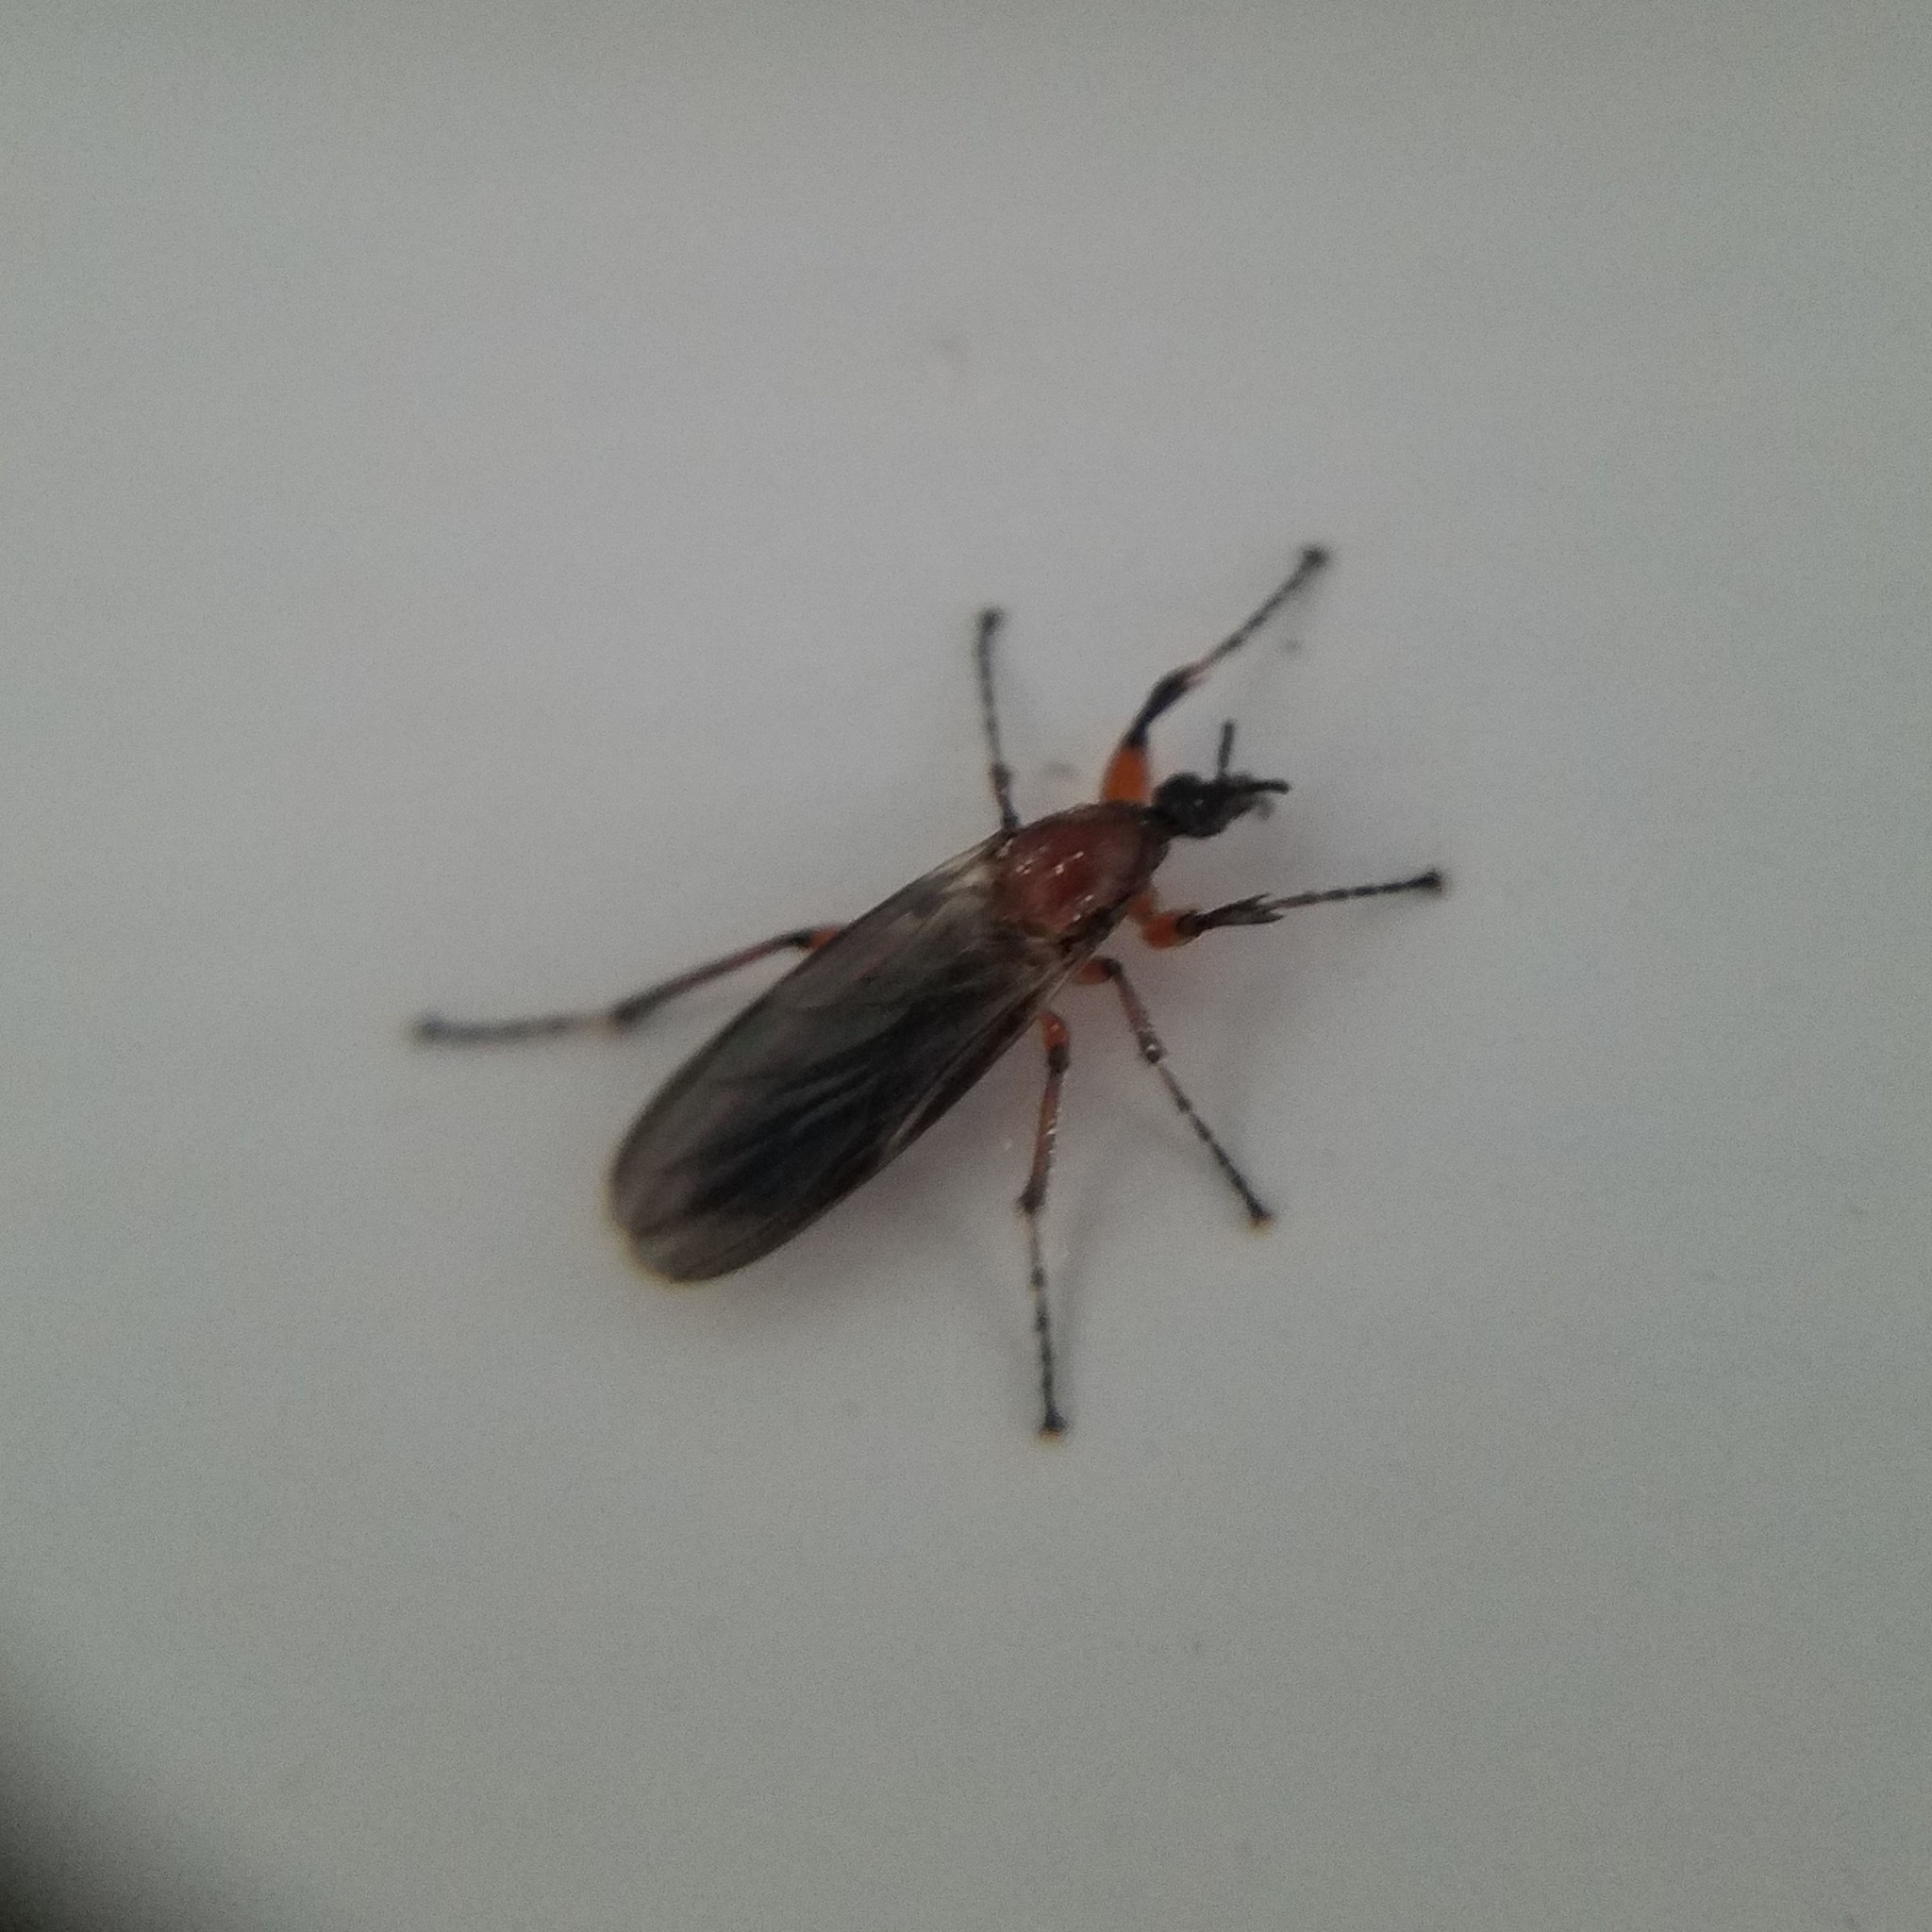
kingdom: Animalia
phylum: Arthropoda
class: Insecta
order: Diptera
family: Bibionidae
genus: Bibio
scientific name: Bibio articulatus
